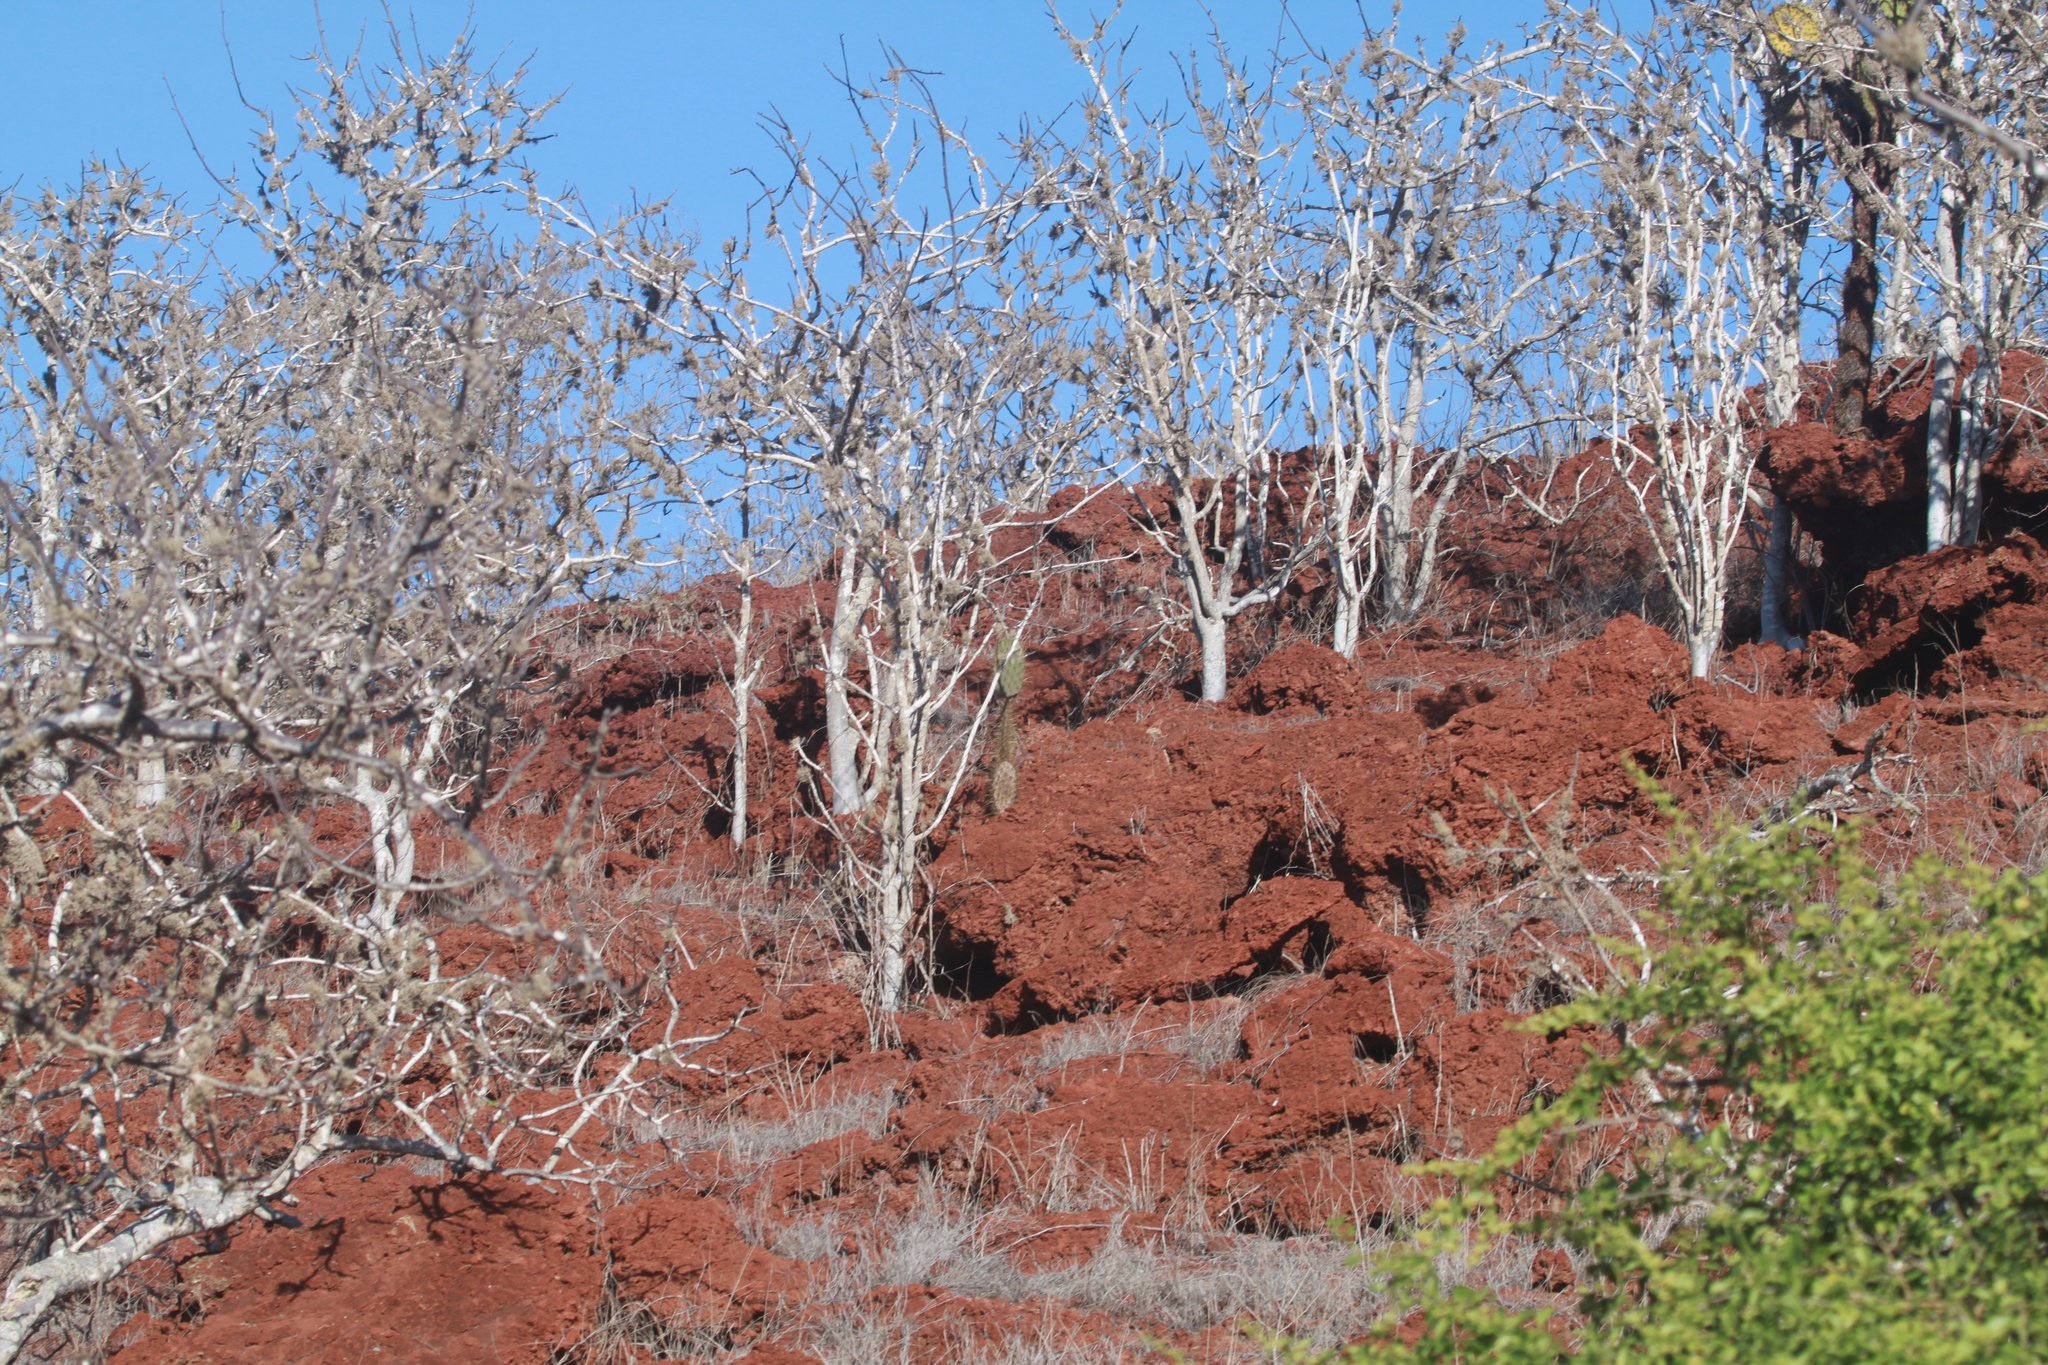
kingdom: Plantae
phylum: Tracheophyta
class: Magnoliopsida
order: Sapindales
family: Burseraceae
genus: Bursera
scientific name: Bursera graveolens
